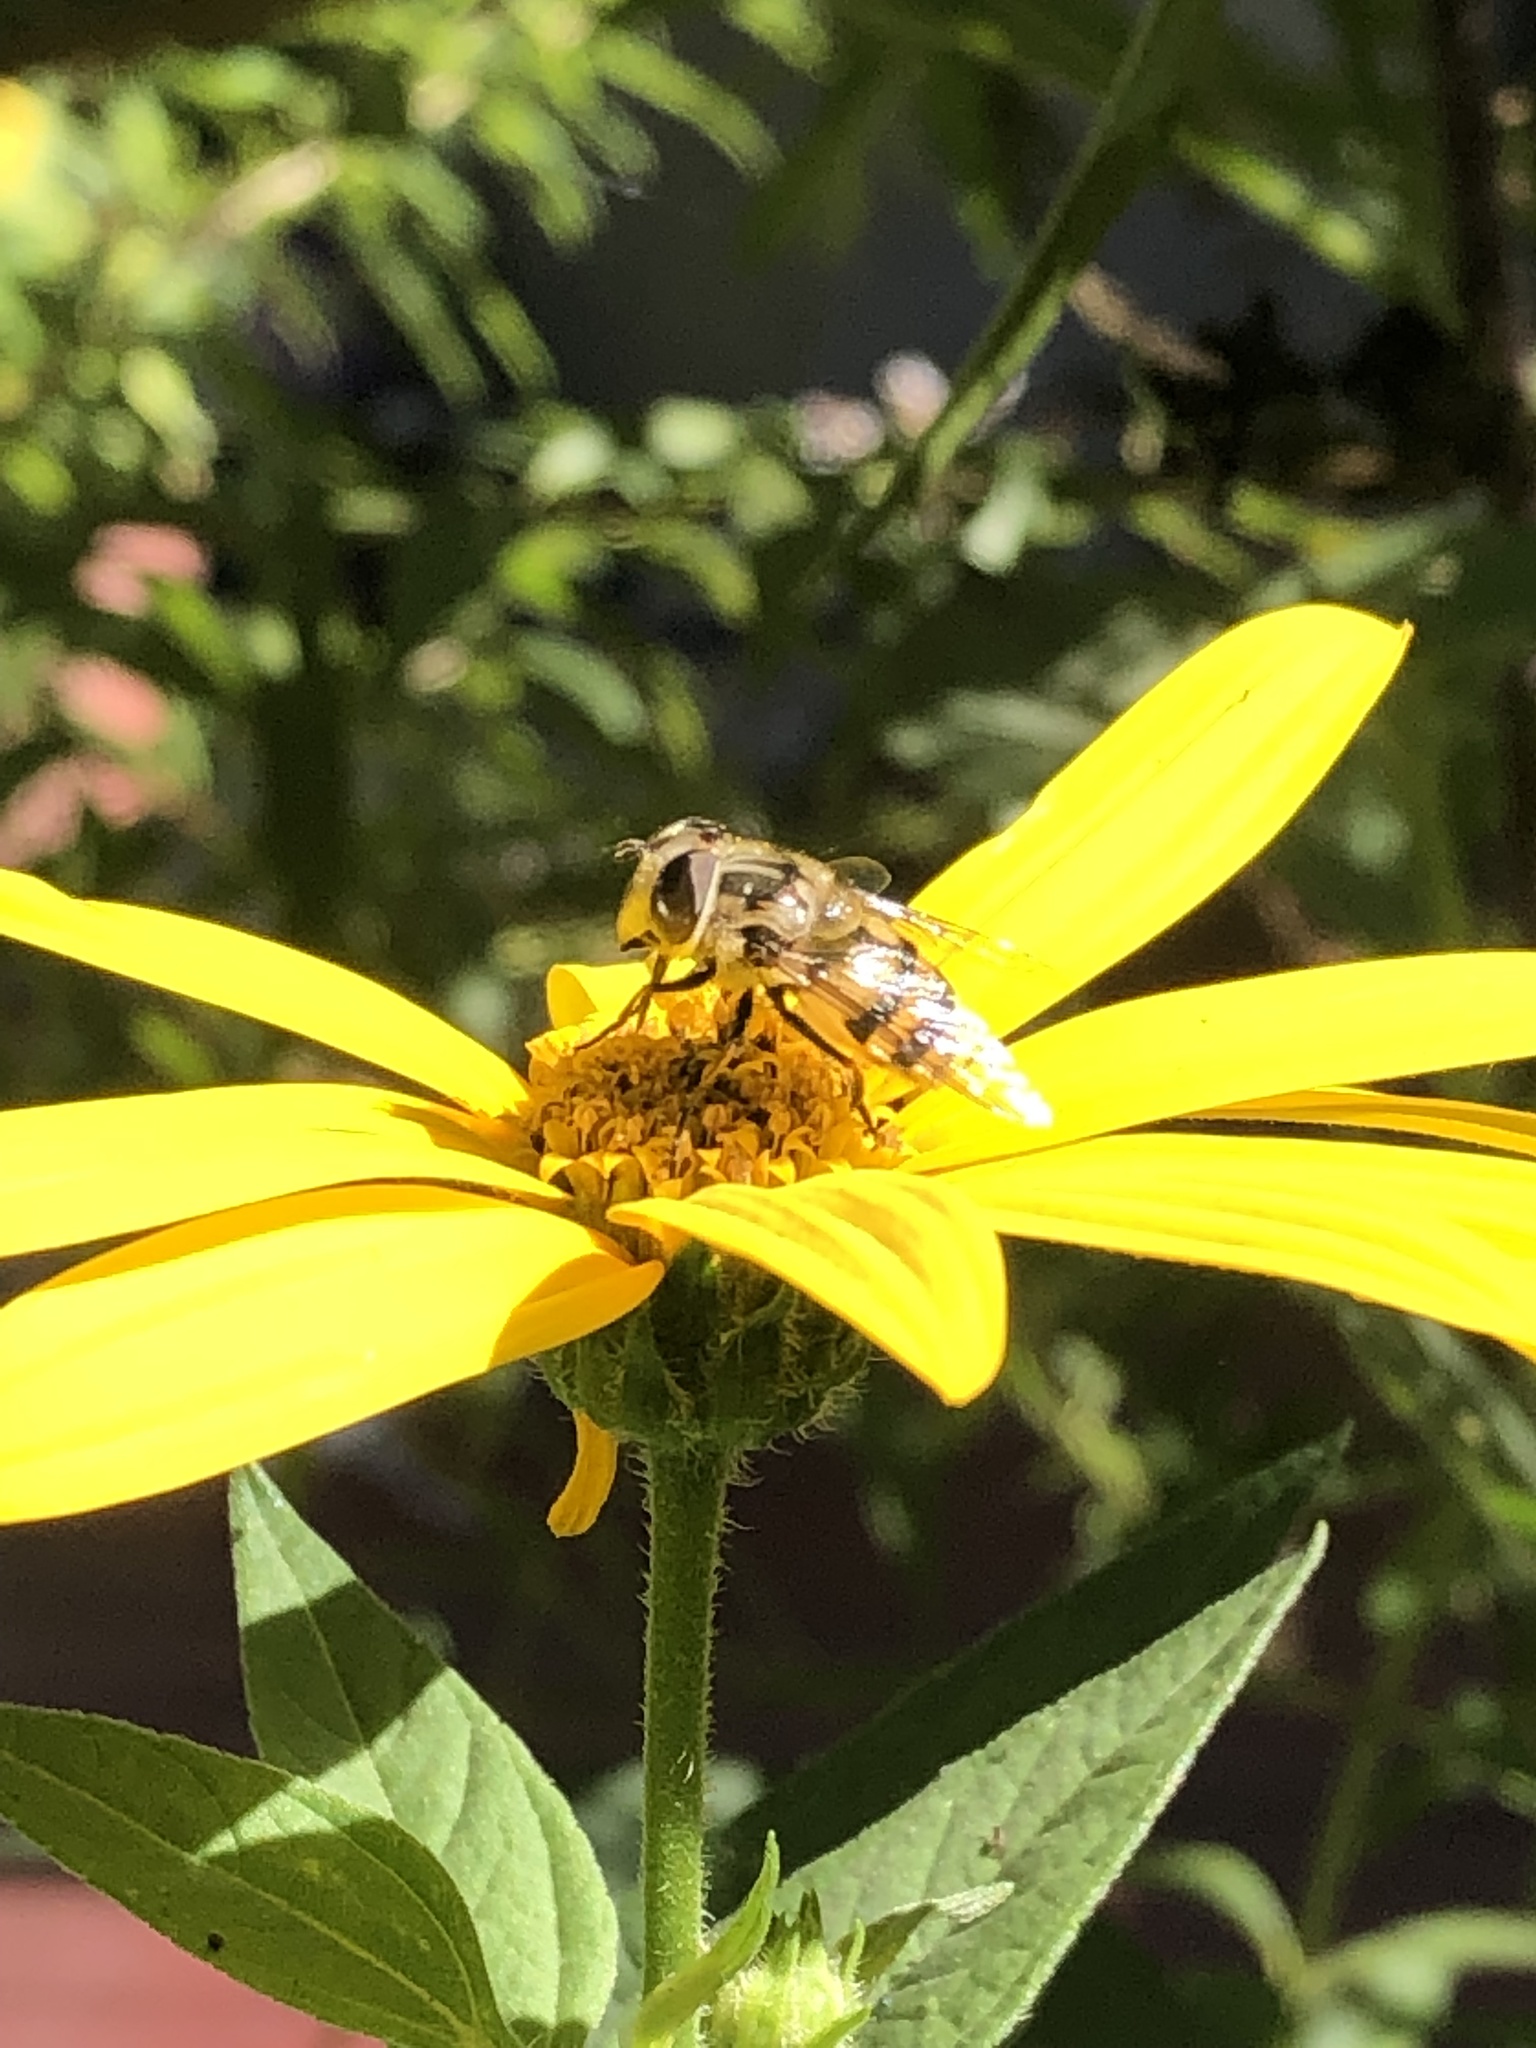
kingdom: Animalia
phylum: Arthropoda
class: Insecta
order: Diptera
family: Syrphidae
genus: Copestylum
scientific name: Copestylum avidum
